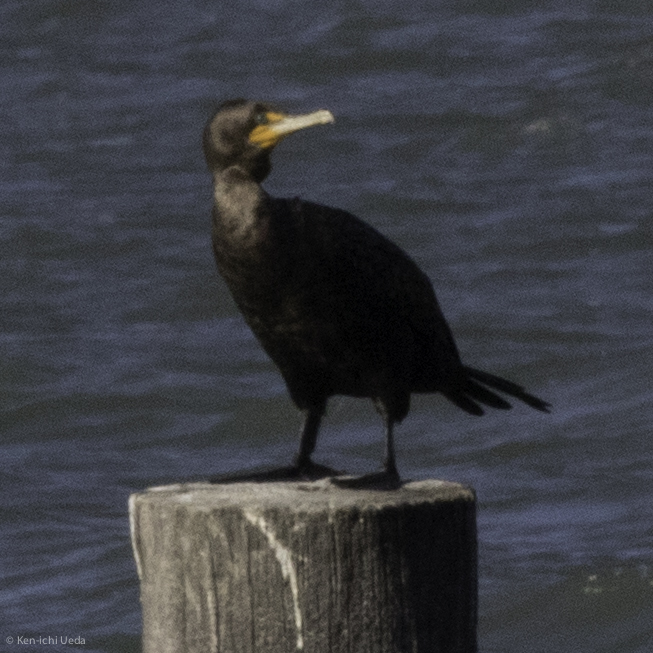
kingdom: Animalia
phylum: Chordata
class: Aves
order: Suliformes
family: Phalacrocoracidae
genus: Phalacrocorax
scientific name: Phalacrocorax auritus
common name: Double-crested cormorant
